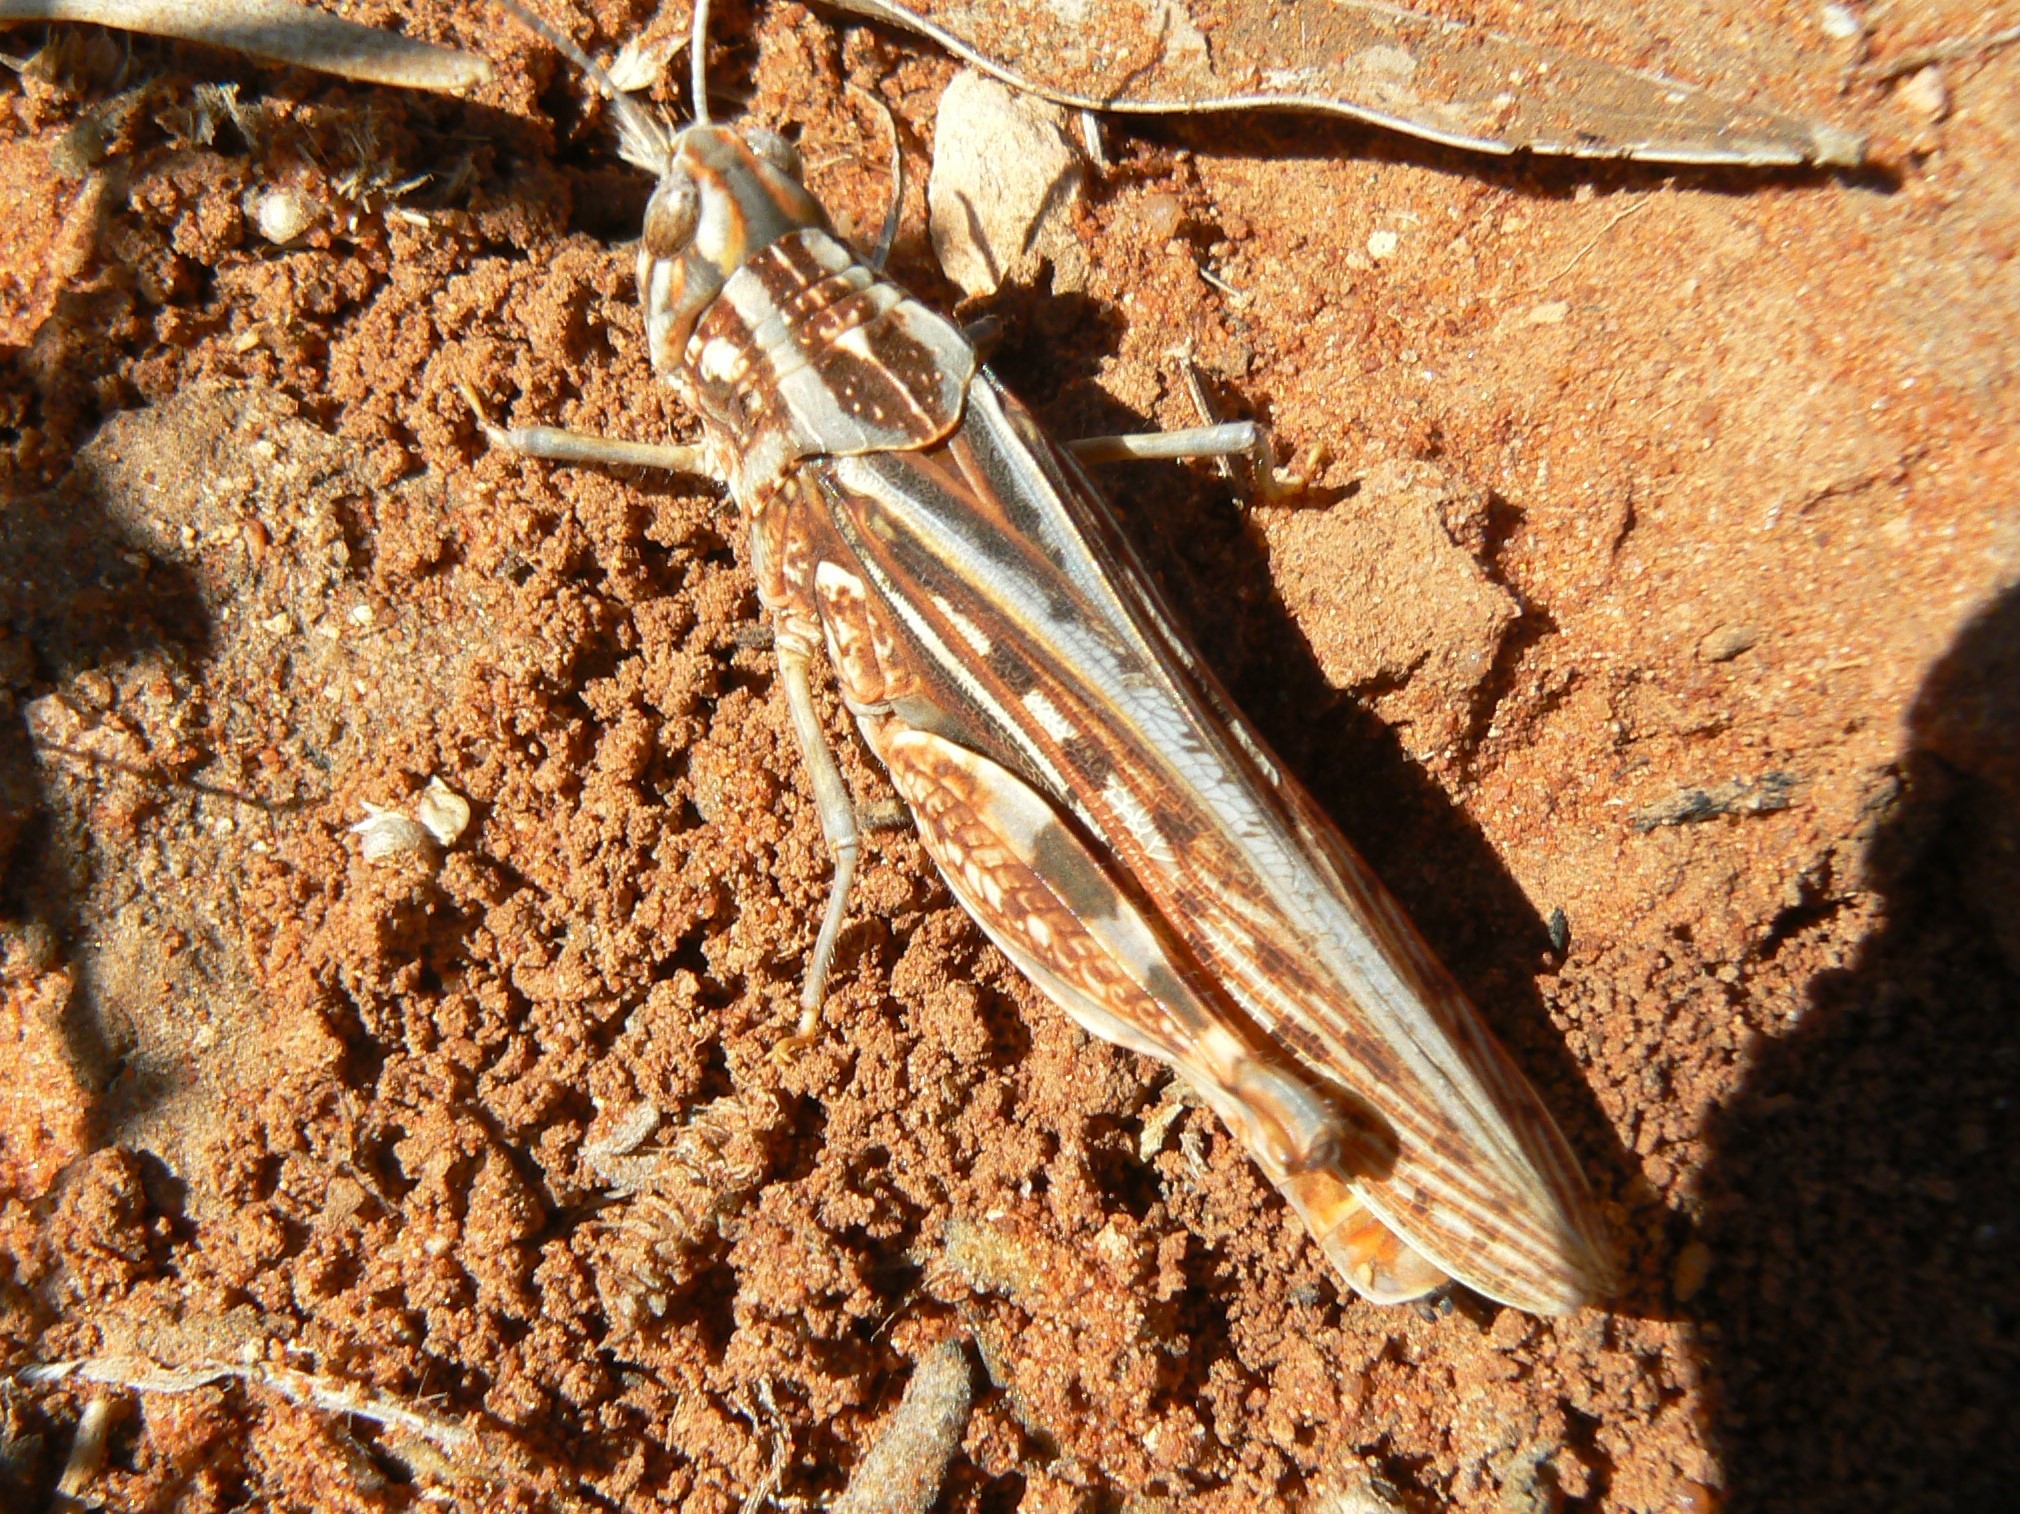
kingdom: Animalia
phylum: Arthropoda
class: Insecta
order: Orthoptera
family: Acrididae
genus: Parazelum
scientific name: Parazelum rubripes
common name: Parazelum
